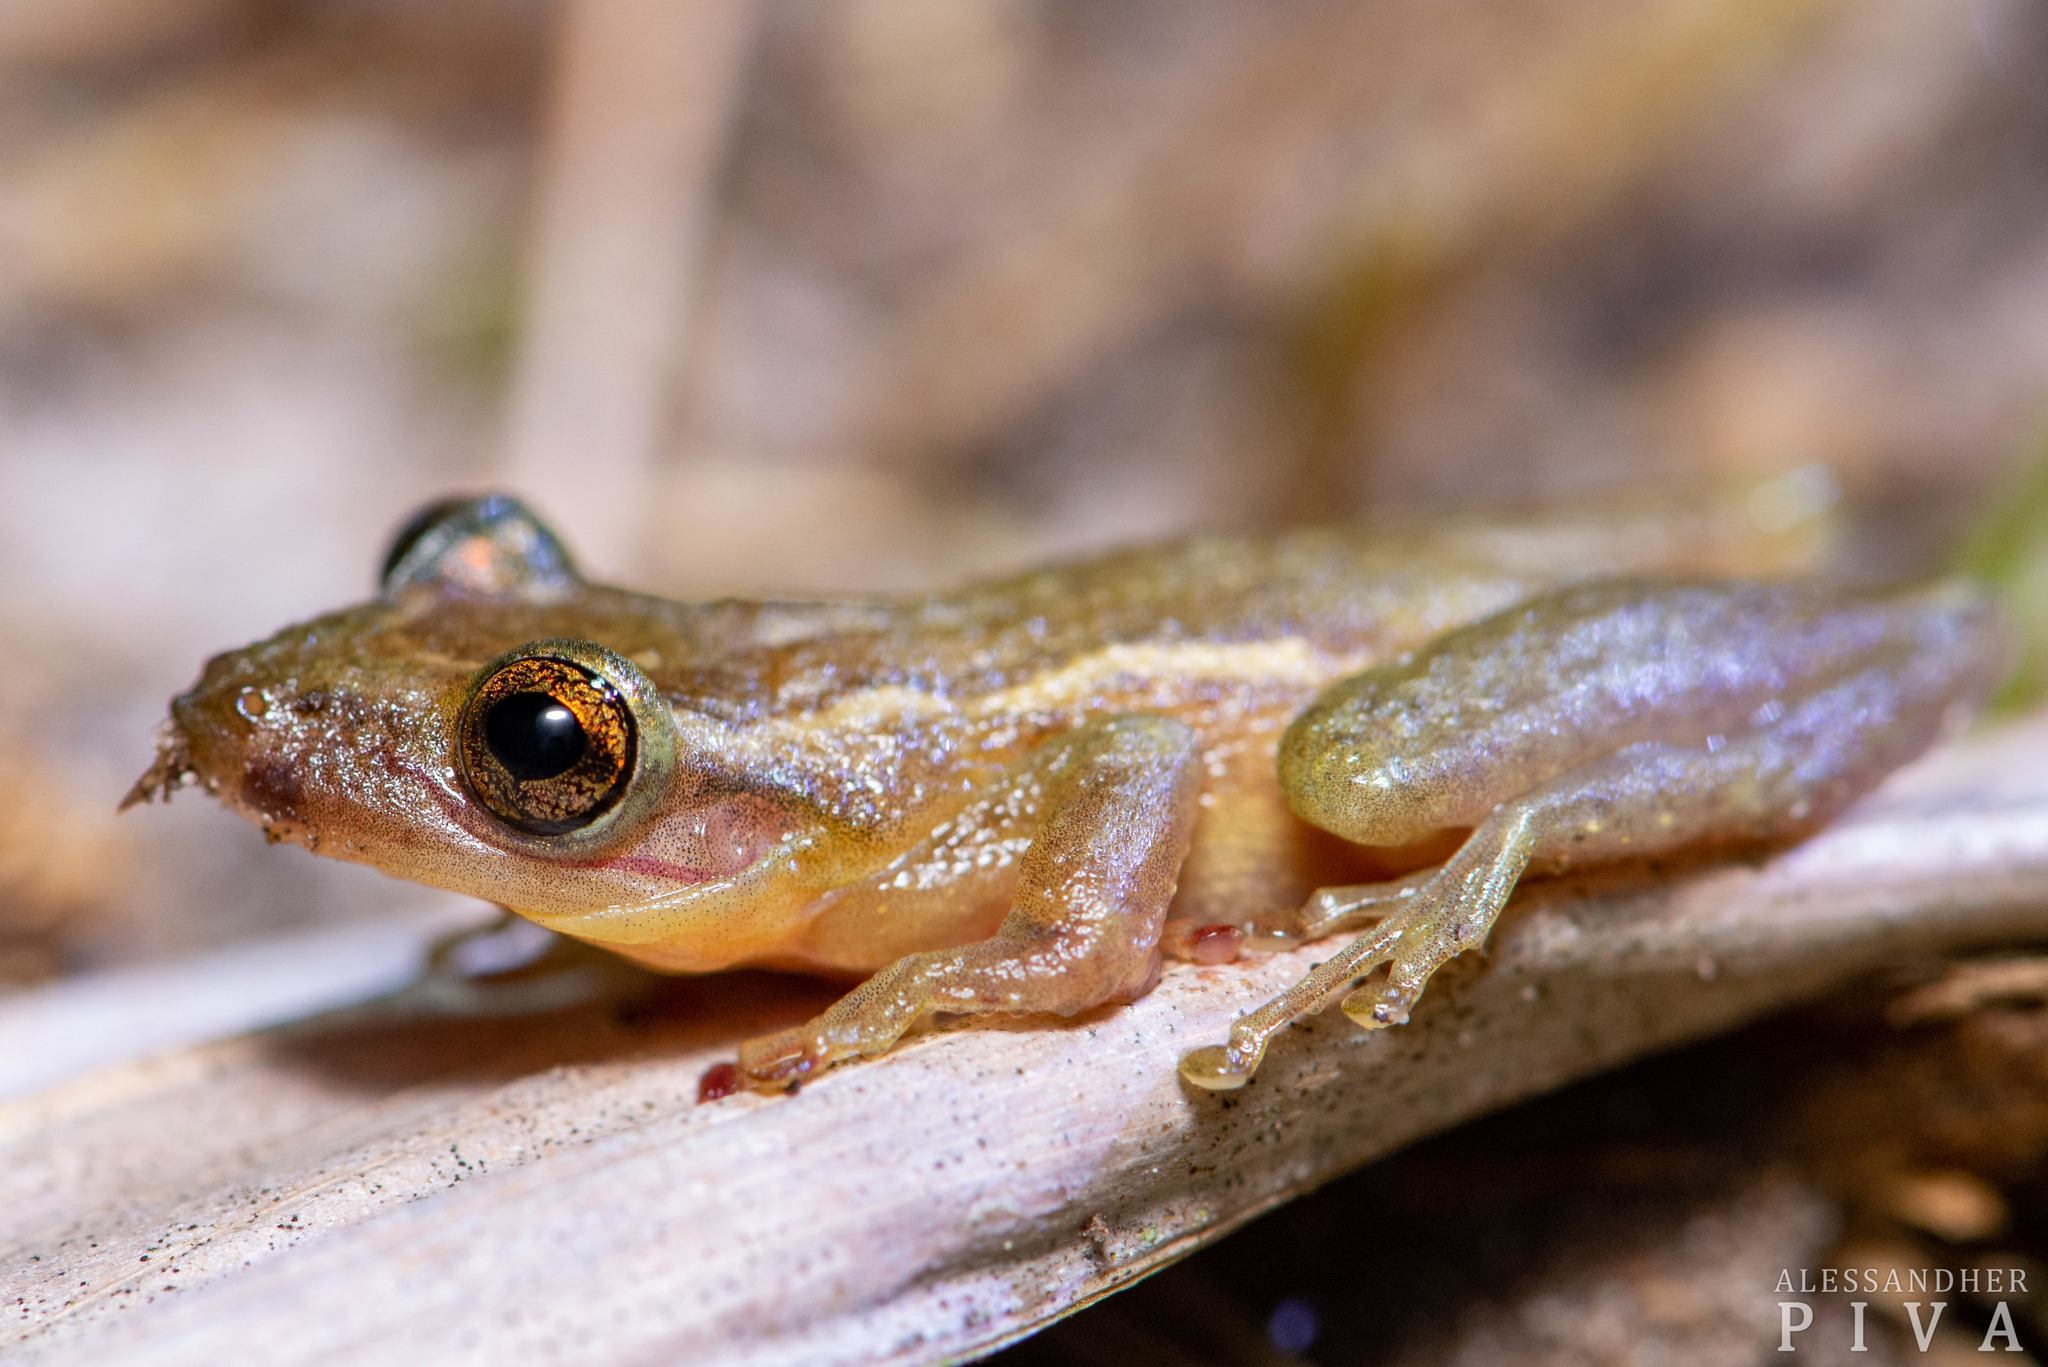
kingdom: Animalia
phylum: Chordata
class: Amphibia
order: Anura
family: Hylidae
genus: Scinax
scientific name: Scinax tymbamirim
